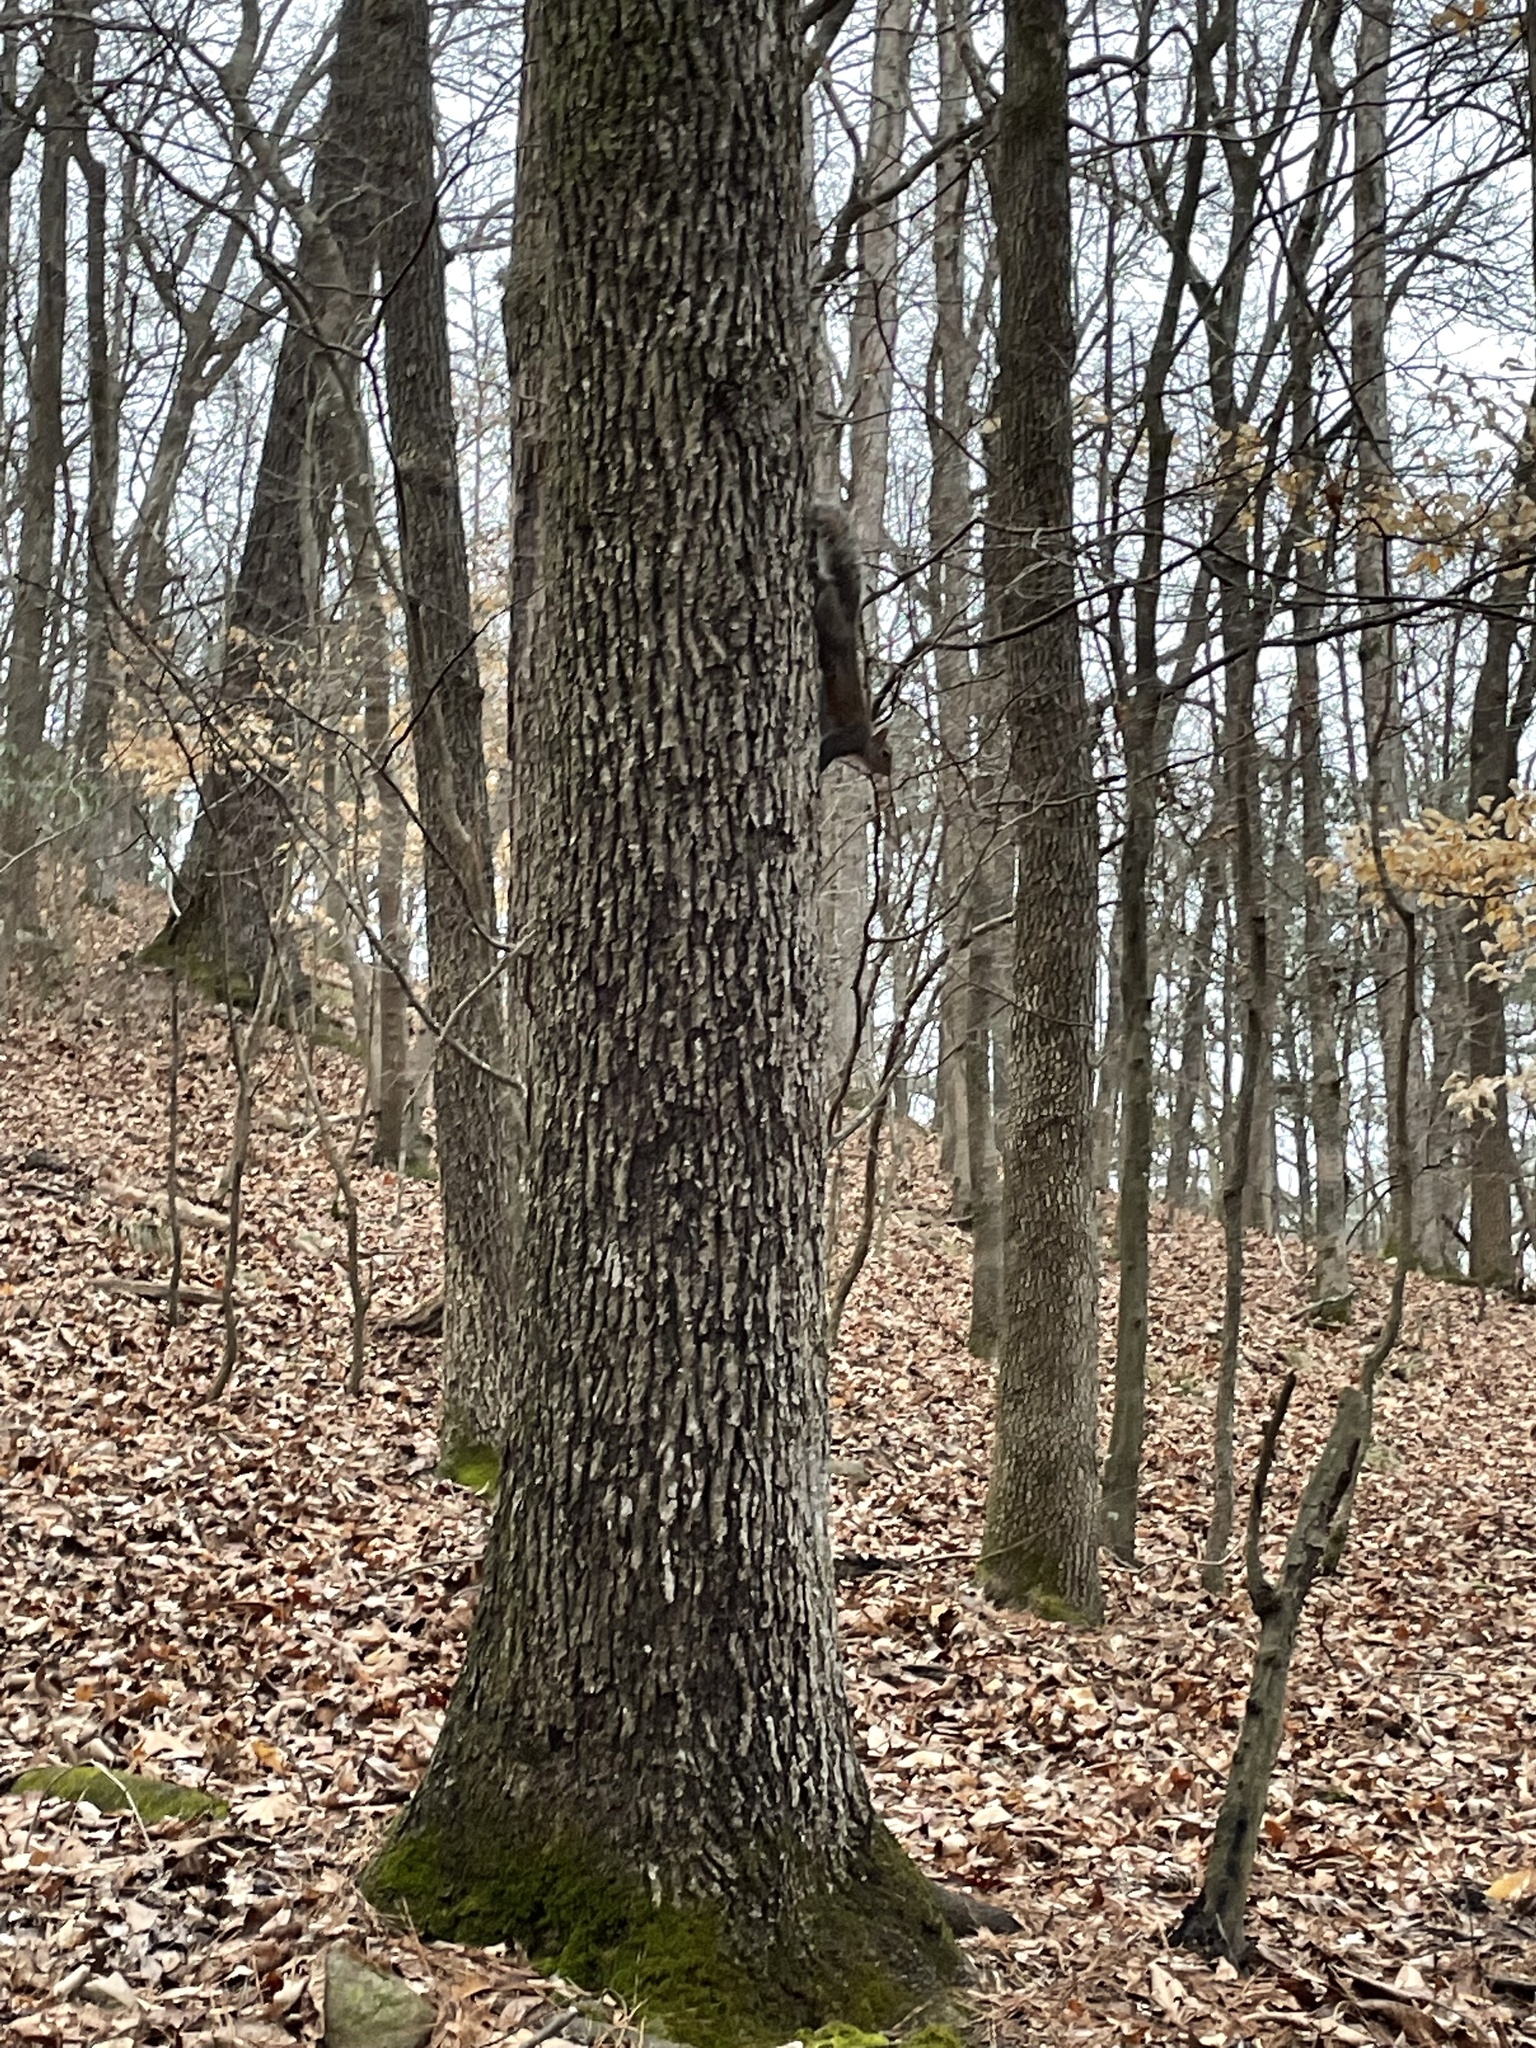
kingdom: Animalia
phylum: Chordata
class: Mammalia
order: Rodentia
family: Sciuridae
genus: Sciurus
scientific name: Sciurus carolinensis
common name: Eastern gray squirrel
